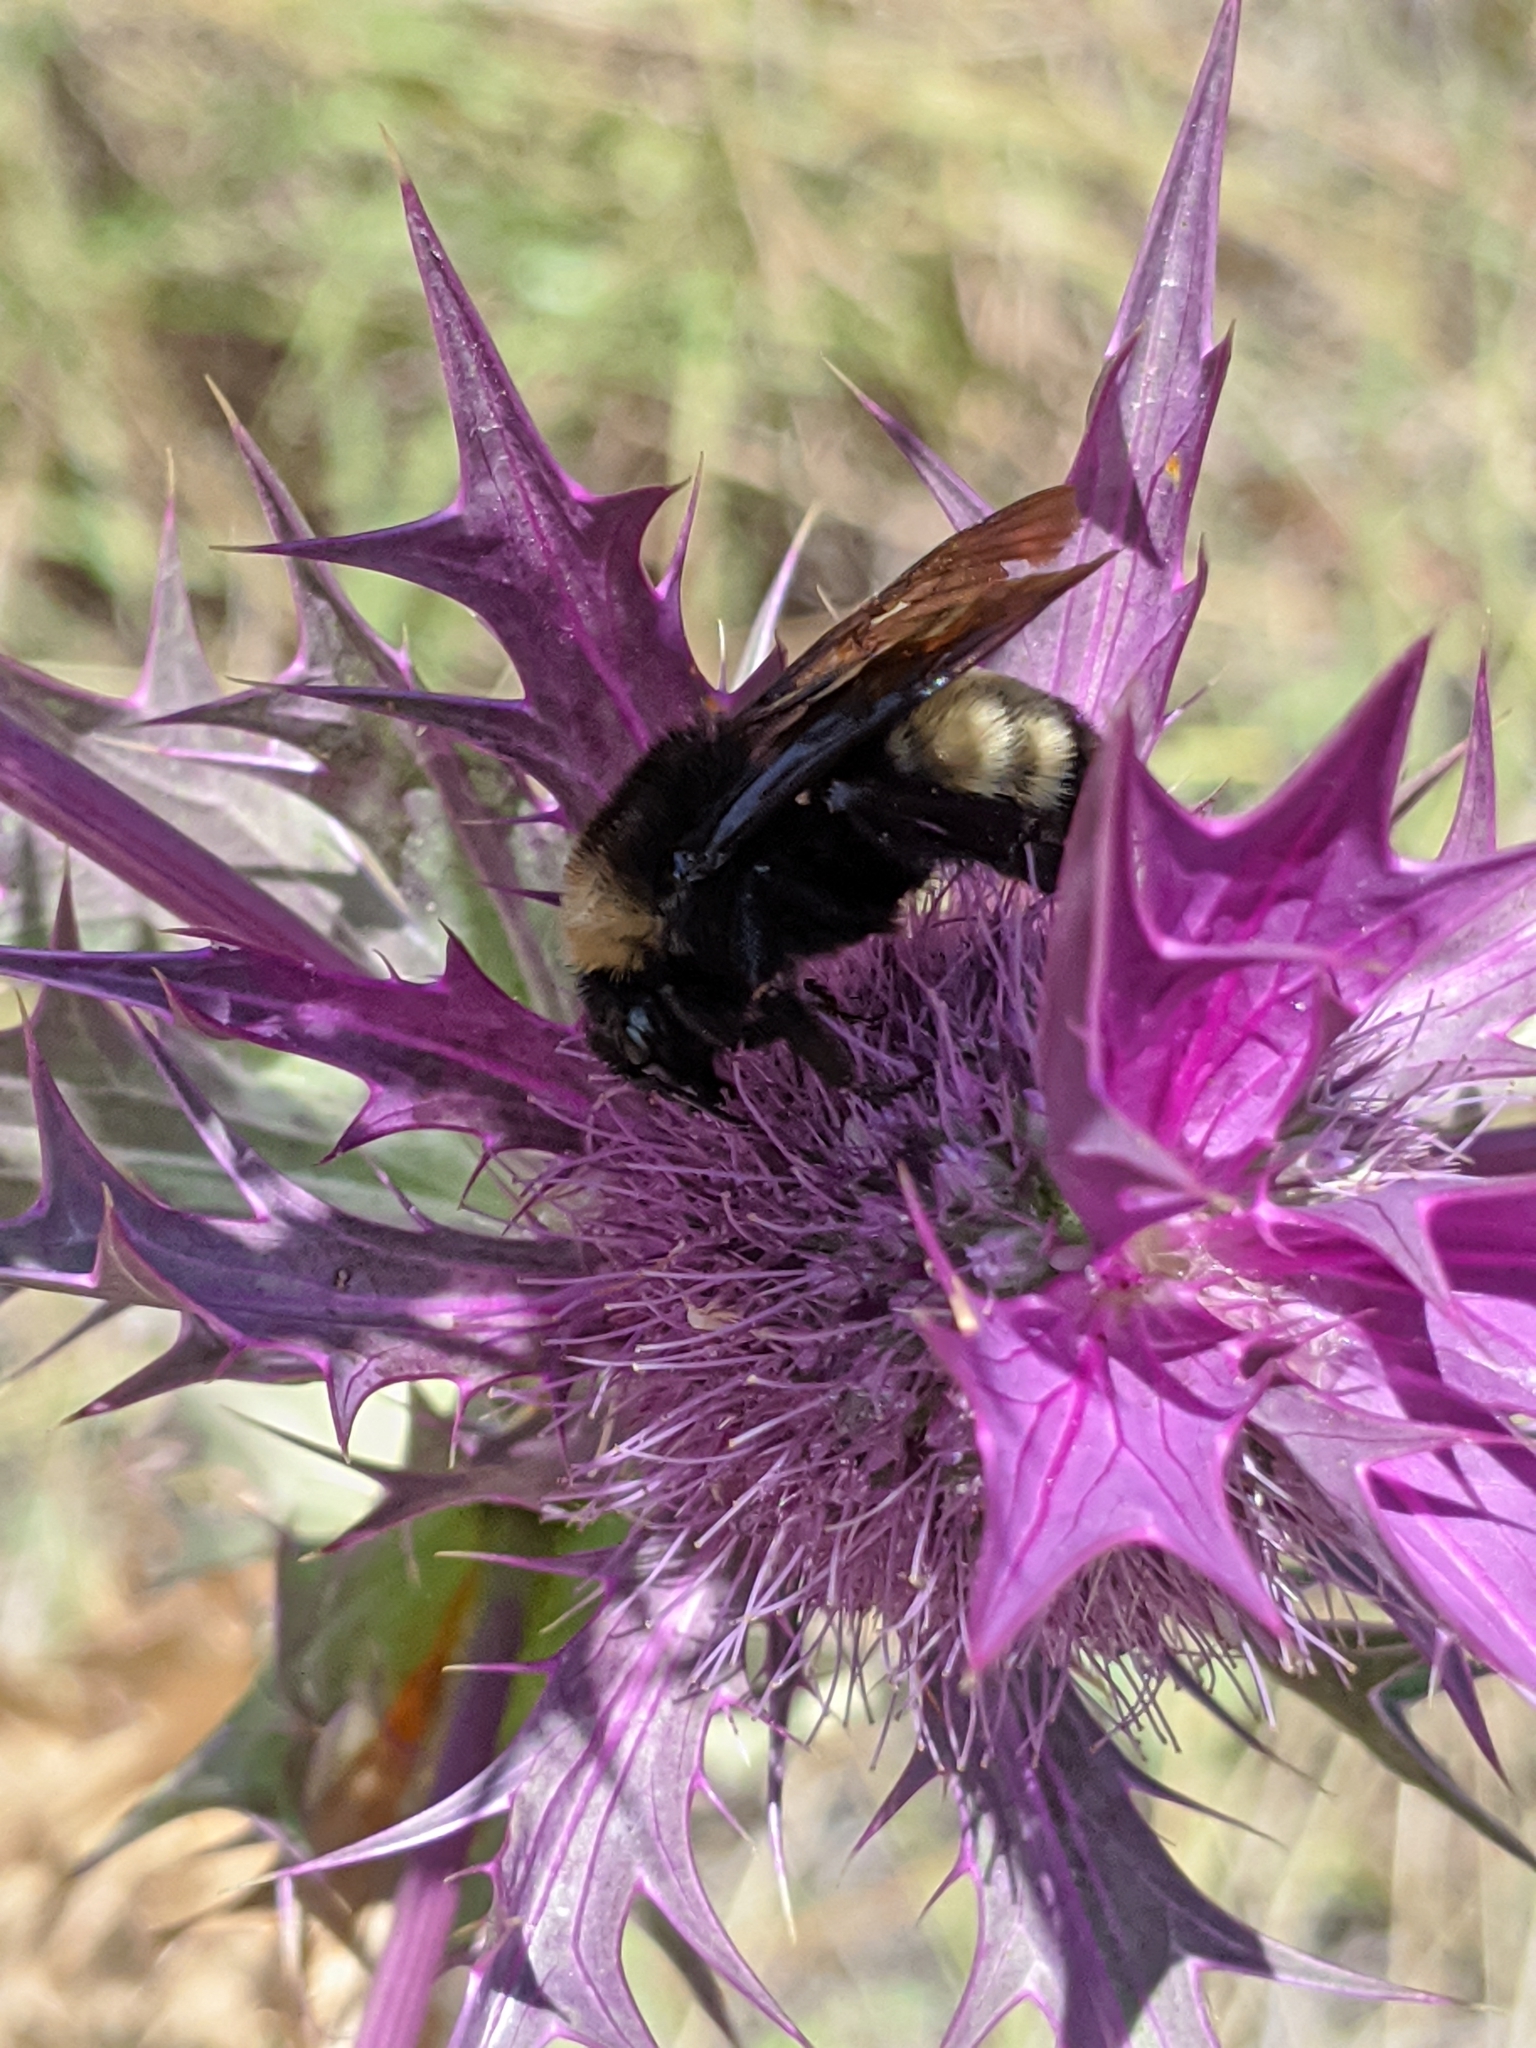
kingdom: Animalia
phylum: Arthropoda
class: Insecta
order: Hymenoptera
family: Apidae
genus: Bombus
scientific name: Bombus pensylvanicus
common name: Bumble bee
